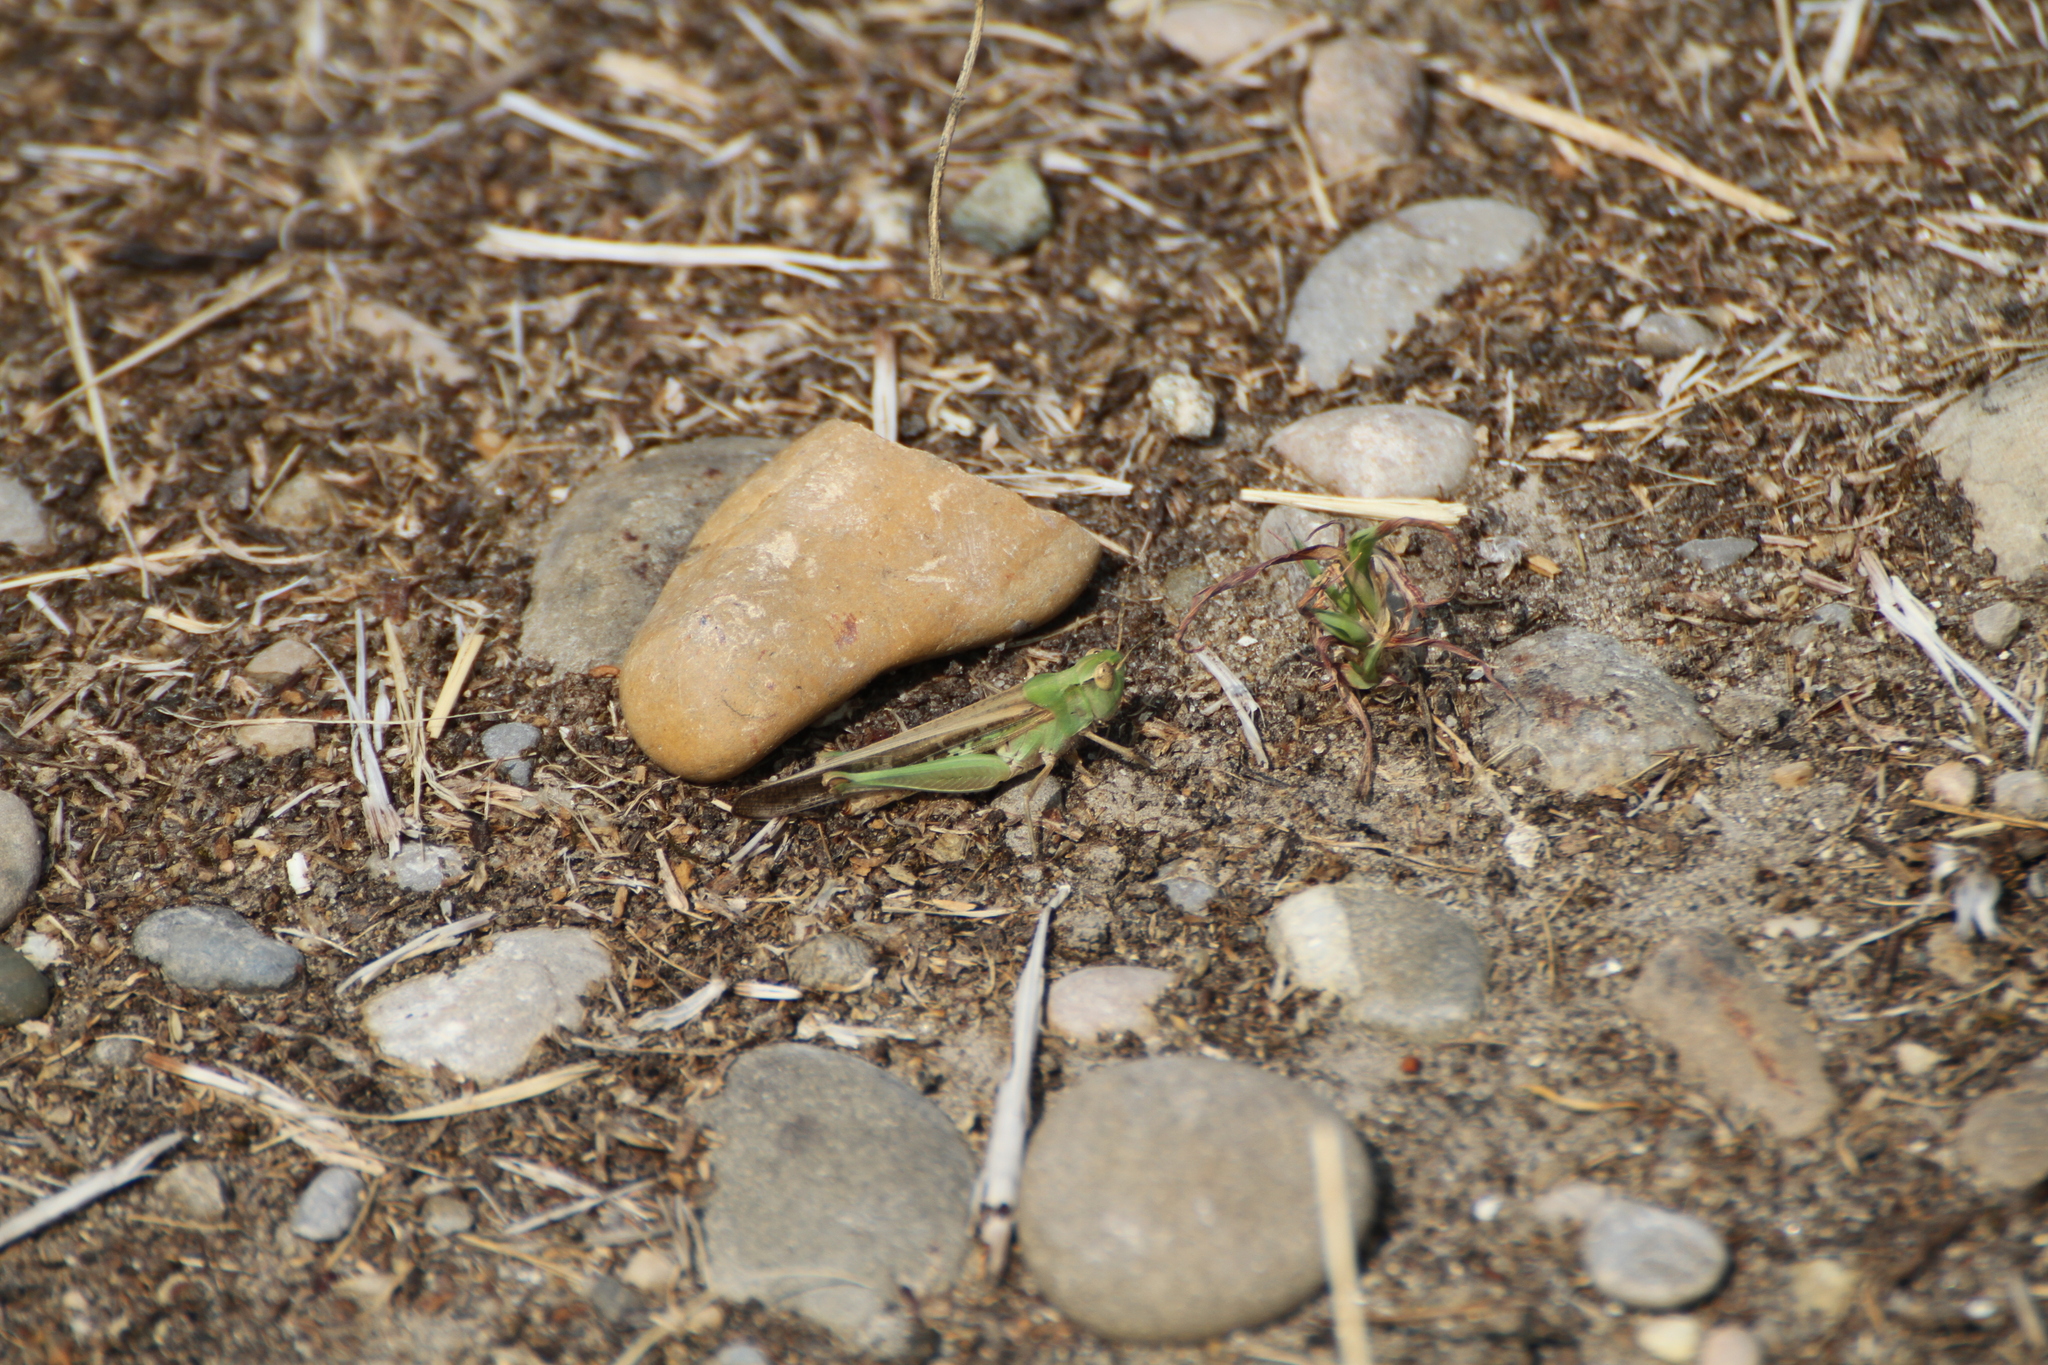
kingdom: Animalia
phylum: Arthropoda
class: Insecta
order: Orthoptera
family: Acrididae
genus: Aiolopus
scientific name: Aiolopus puissanti
